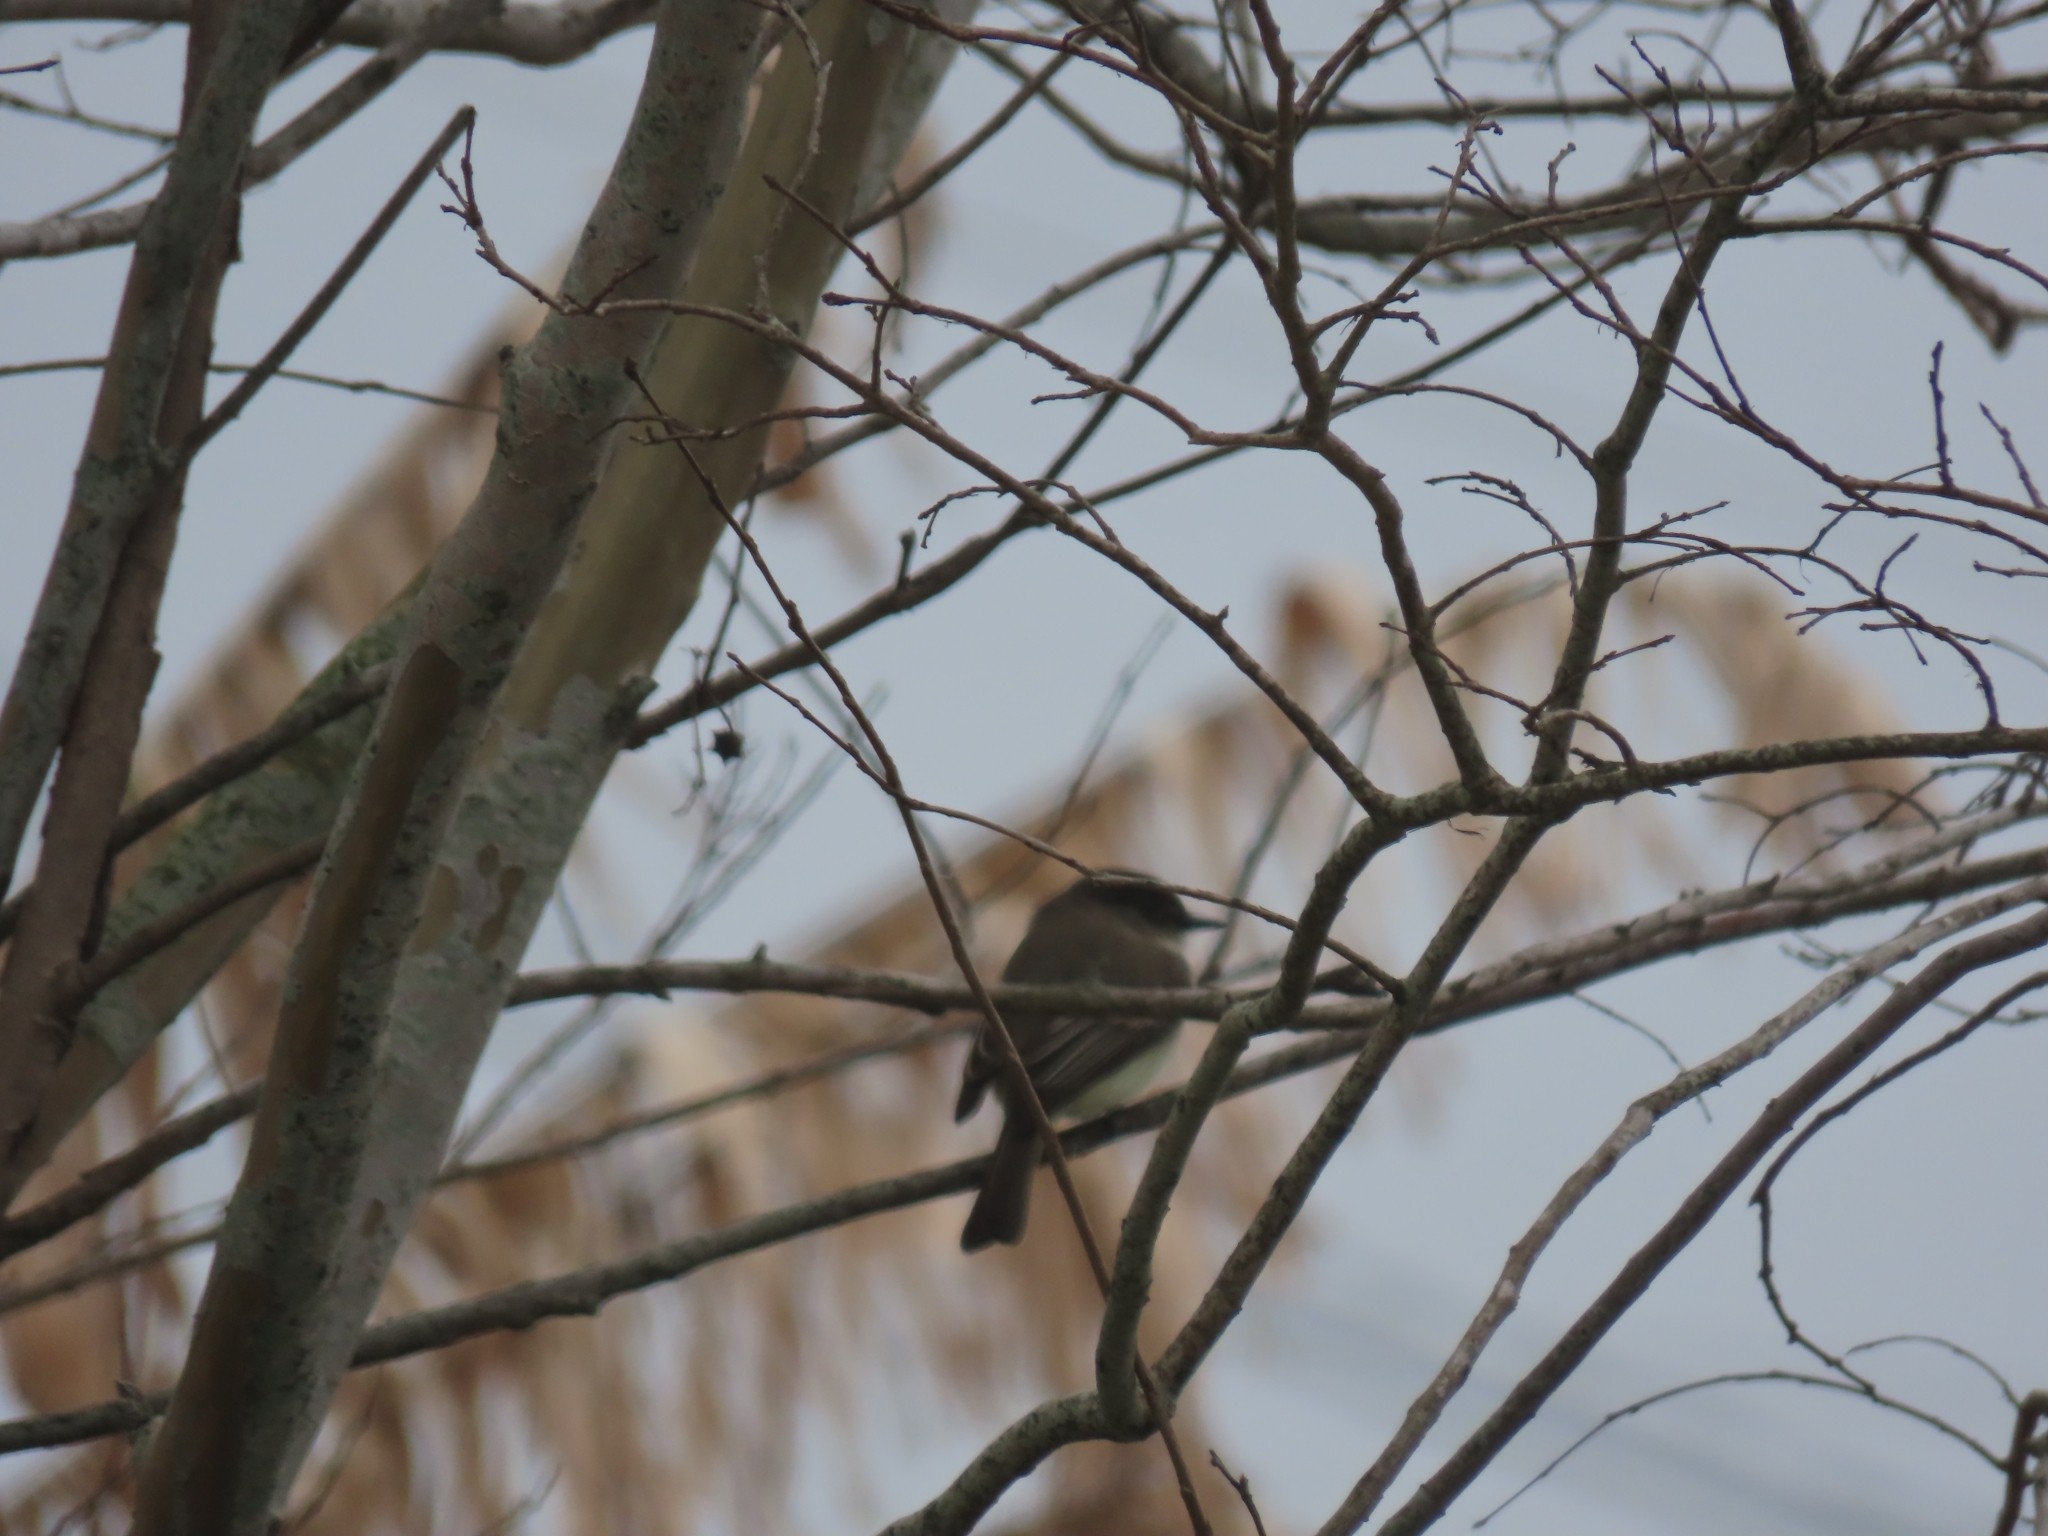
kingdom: Animalia
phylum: Chordata
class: Aves
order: Passeriformes
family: Tyrannidae
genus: Sayornis
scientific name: Sayornis phoebe
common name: Eastern phoebe
